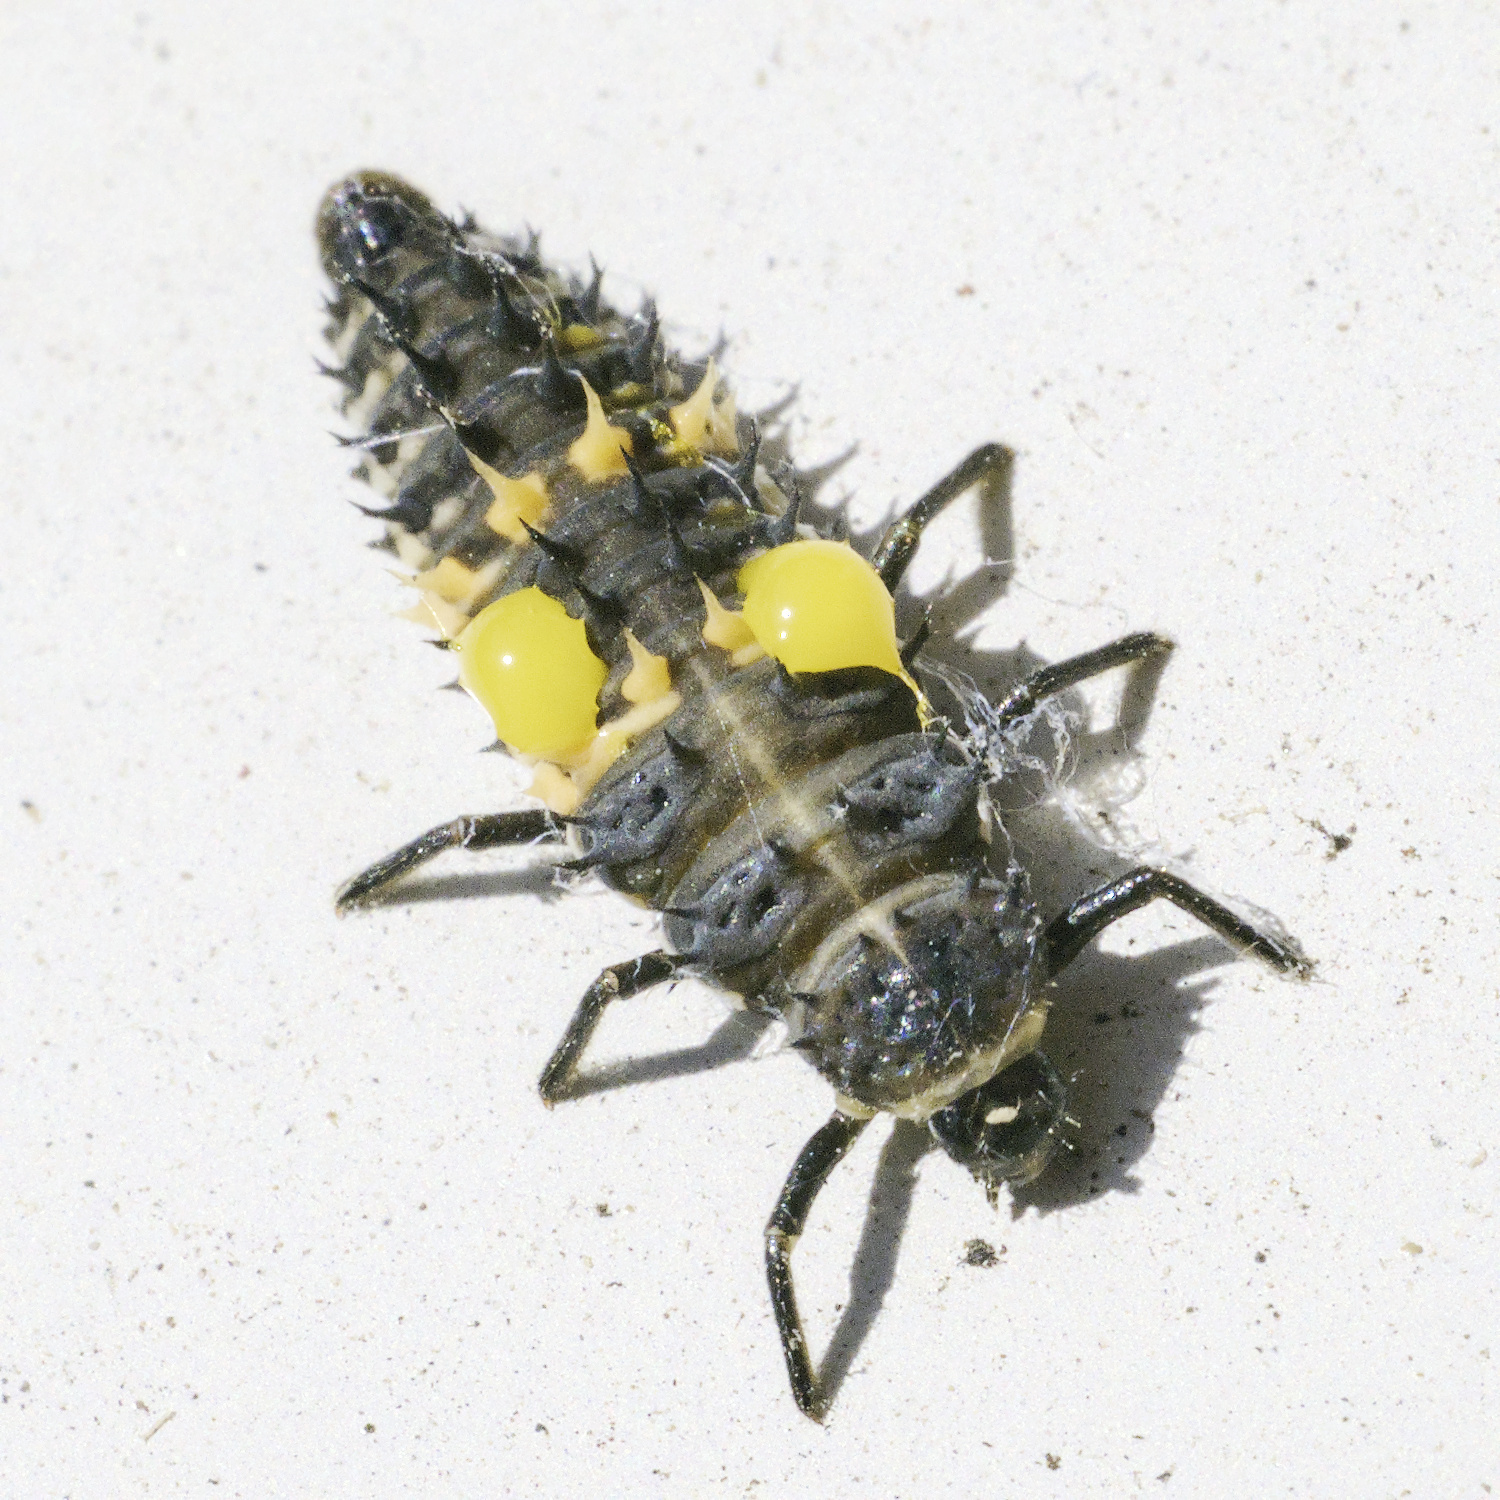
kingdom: Animalia
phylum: Arthropoda
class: Insecta
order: Coleoptera
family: Coccinellidae
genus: Harmonia
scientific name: Harmonia conformis
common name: Common spotted ladybird beetle
